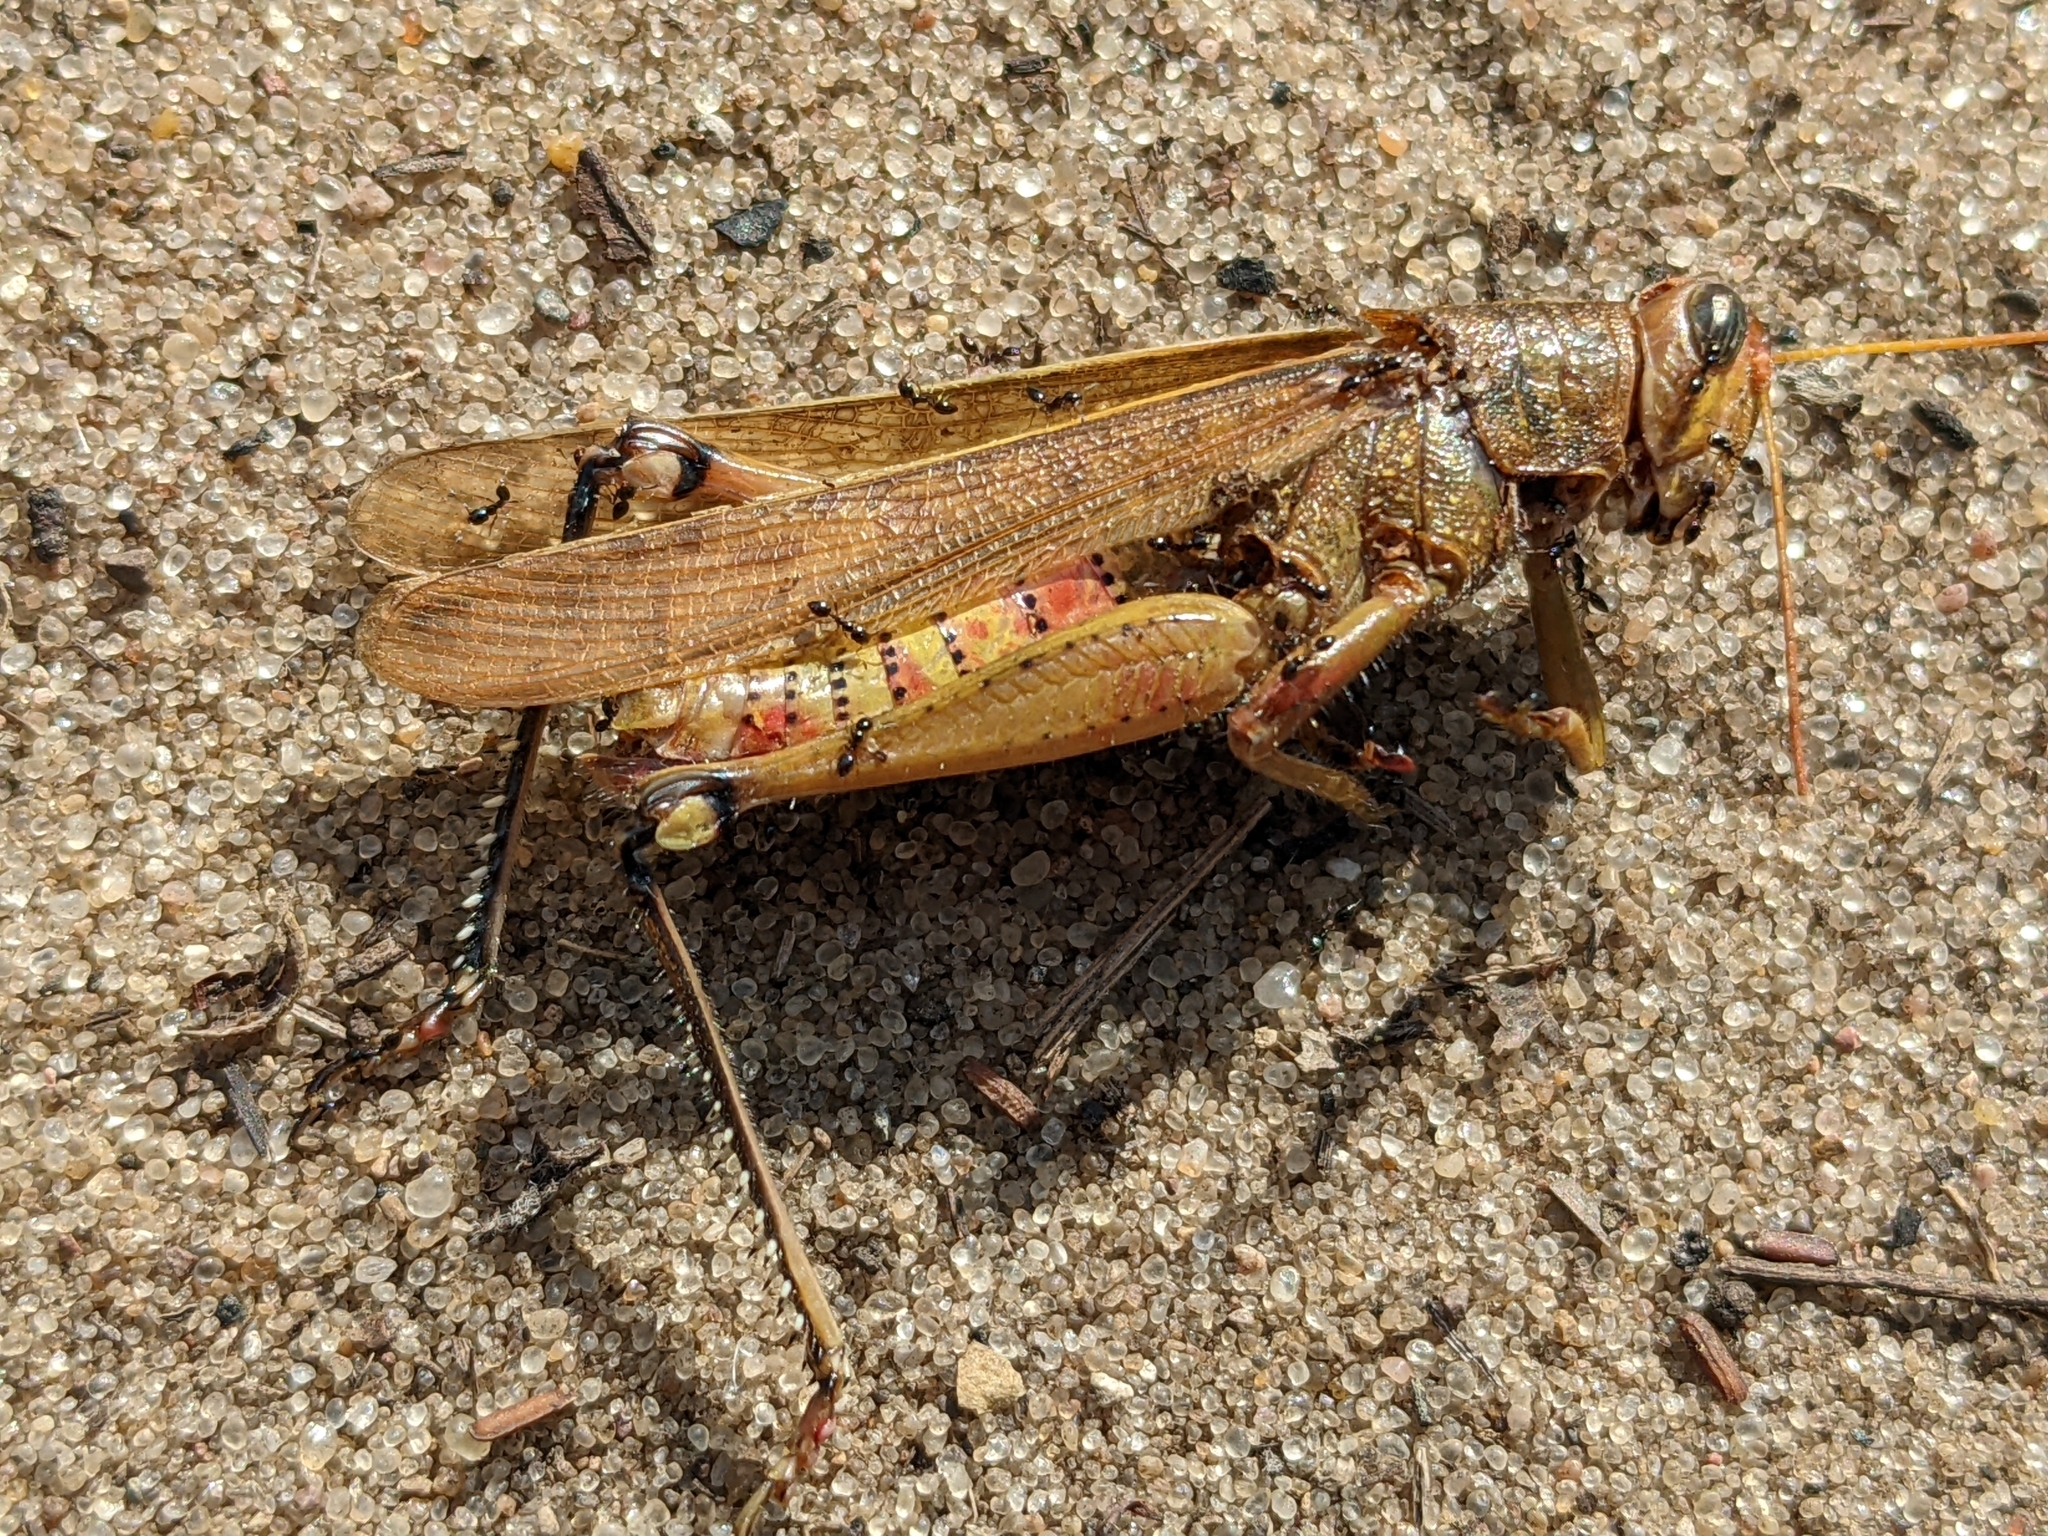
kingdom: Animalia
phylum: Arthropoda
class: Insecta
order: Orthoptera
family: Acrididae
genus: Schistocerca
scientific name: Schistocerca lineata
